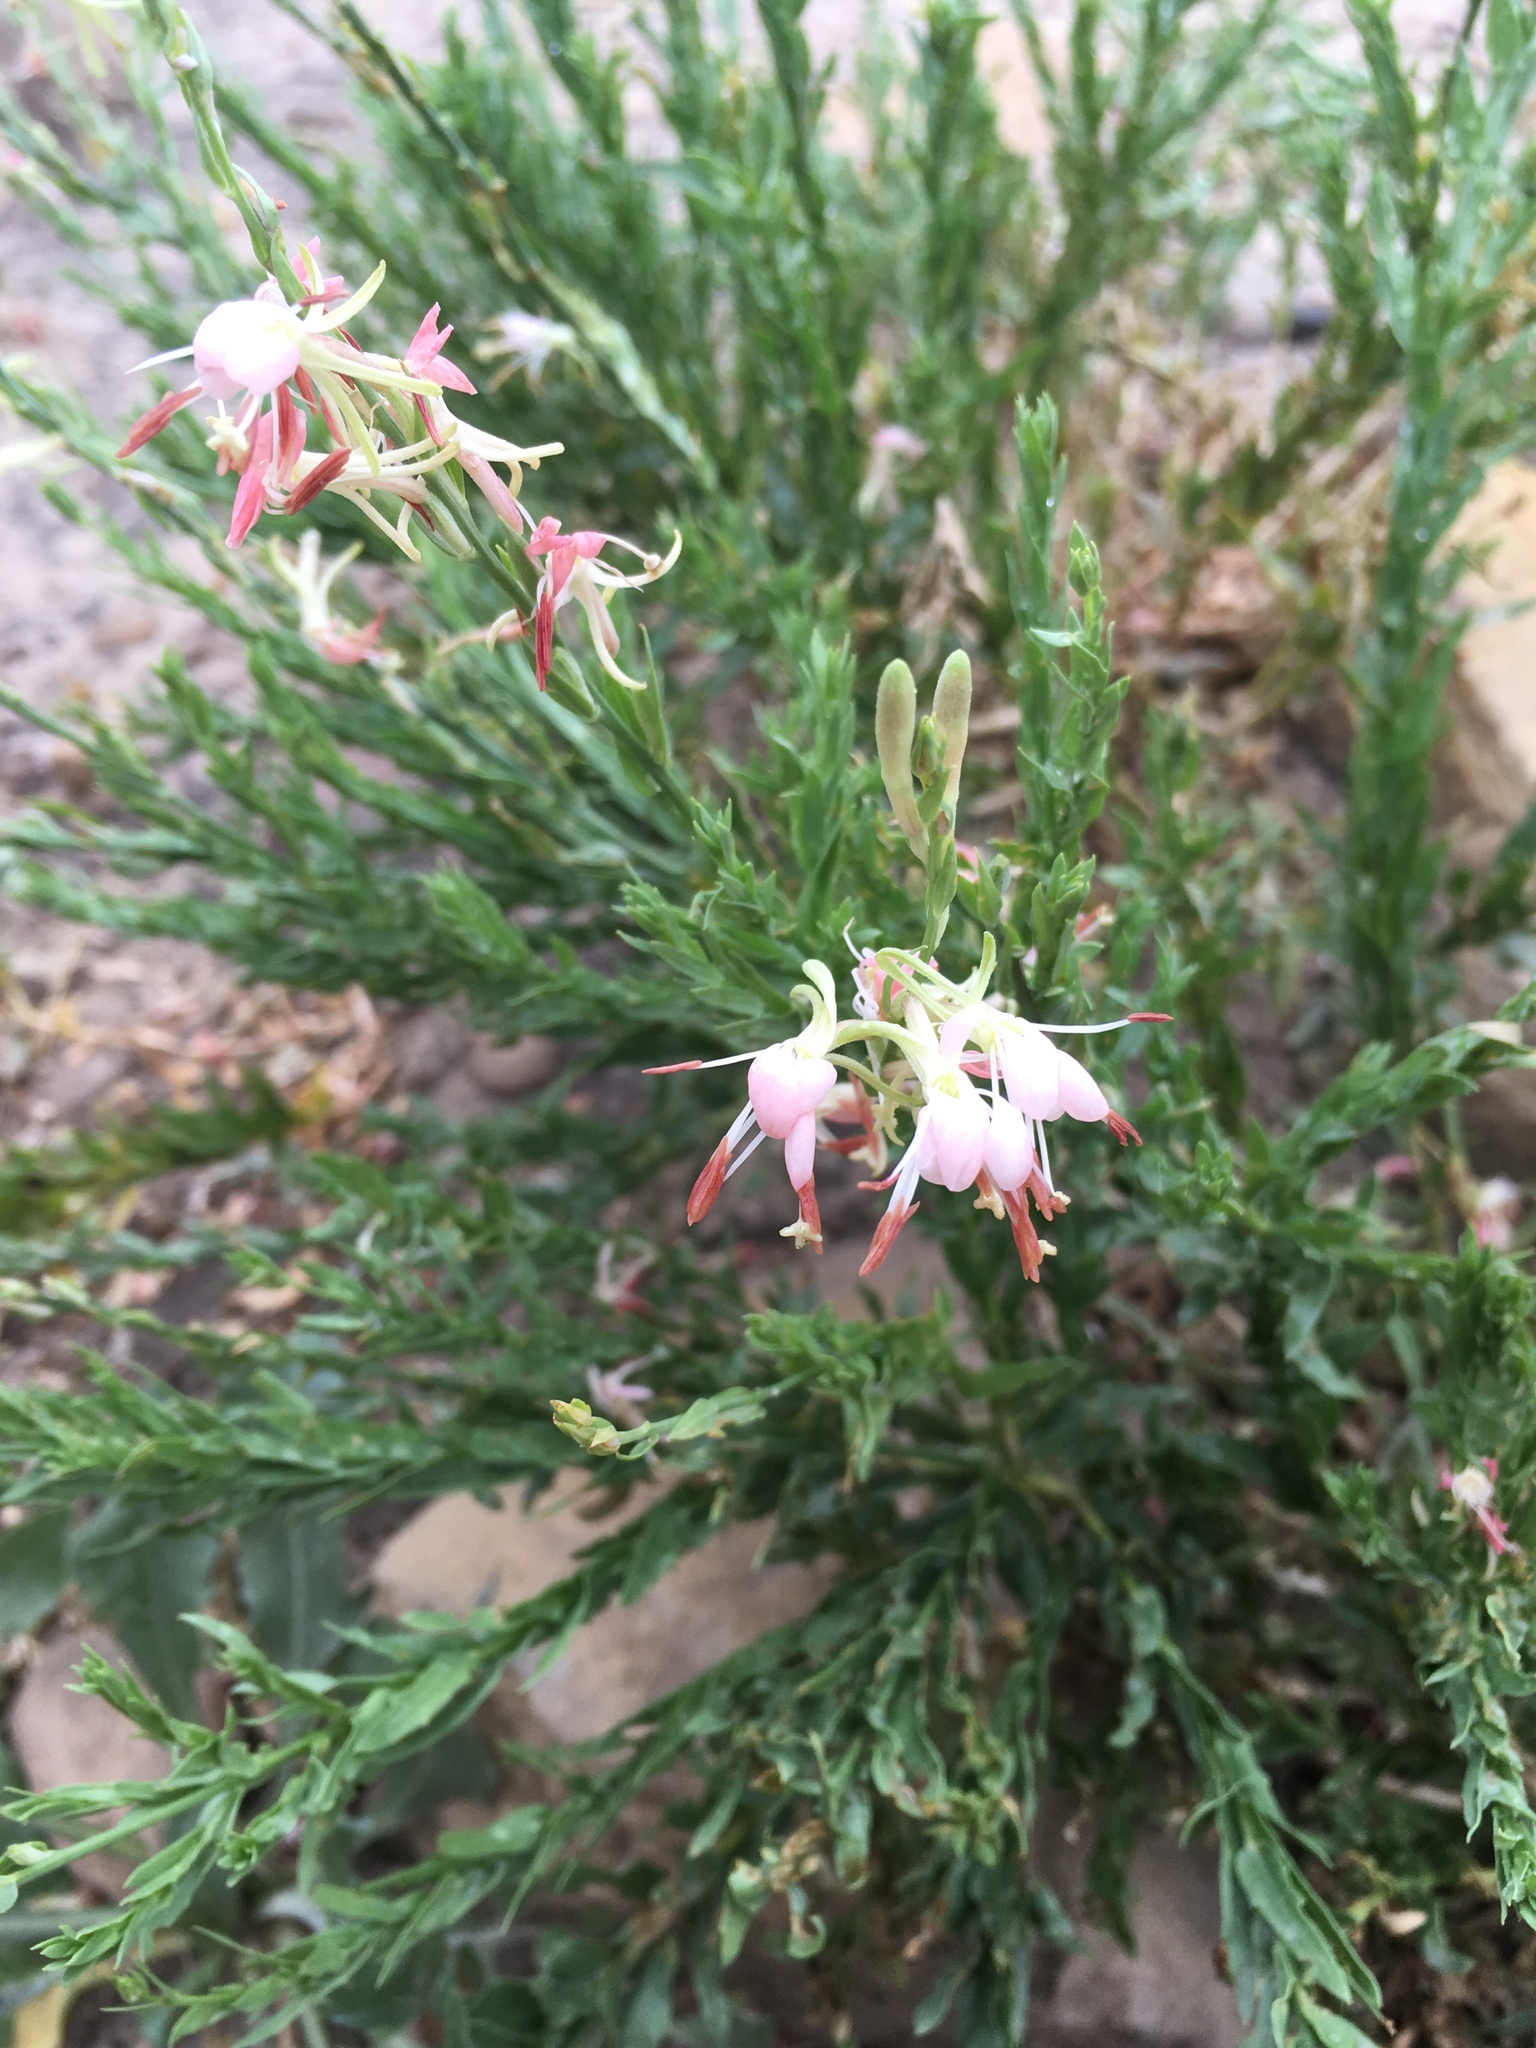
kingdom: Plantae
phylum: Tracheophyta
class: Magnoliopsida
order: Myrtales
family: Onagraceae
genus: Oenothera
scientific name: Oenothera suffrutescens
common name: Scarlet beeblossom
